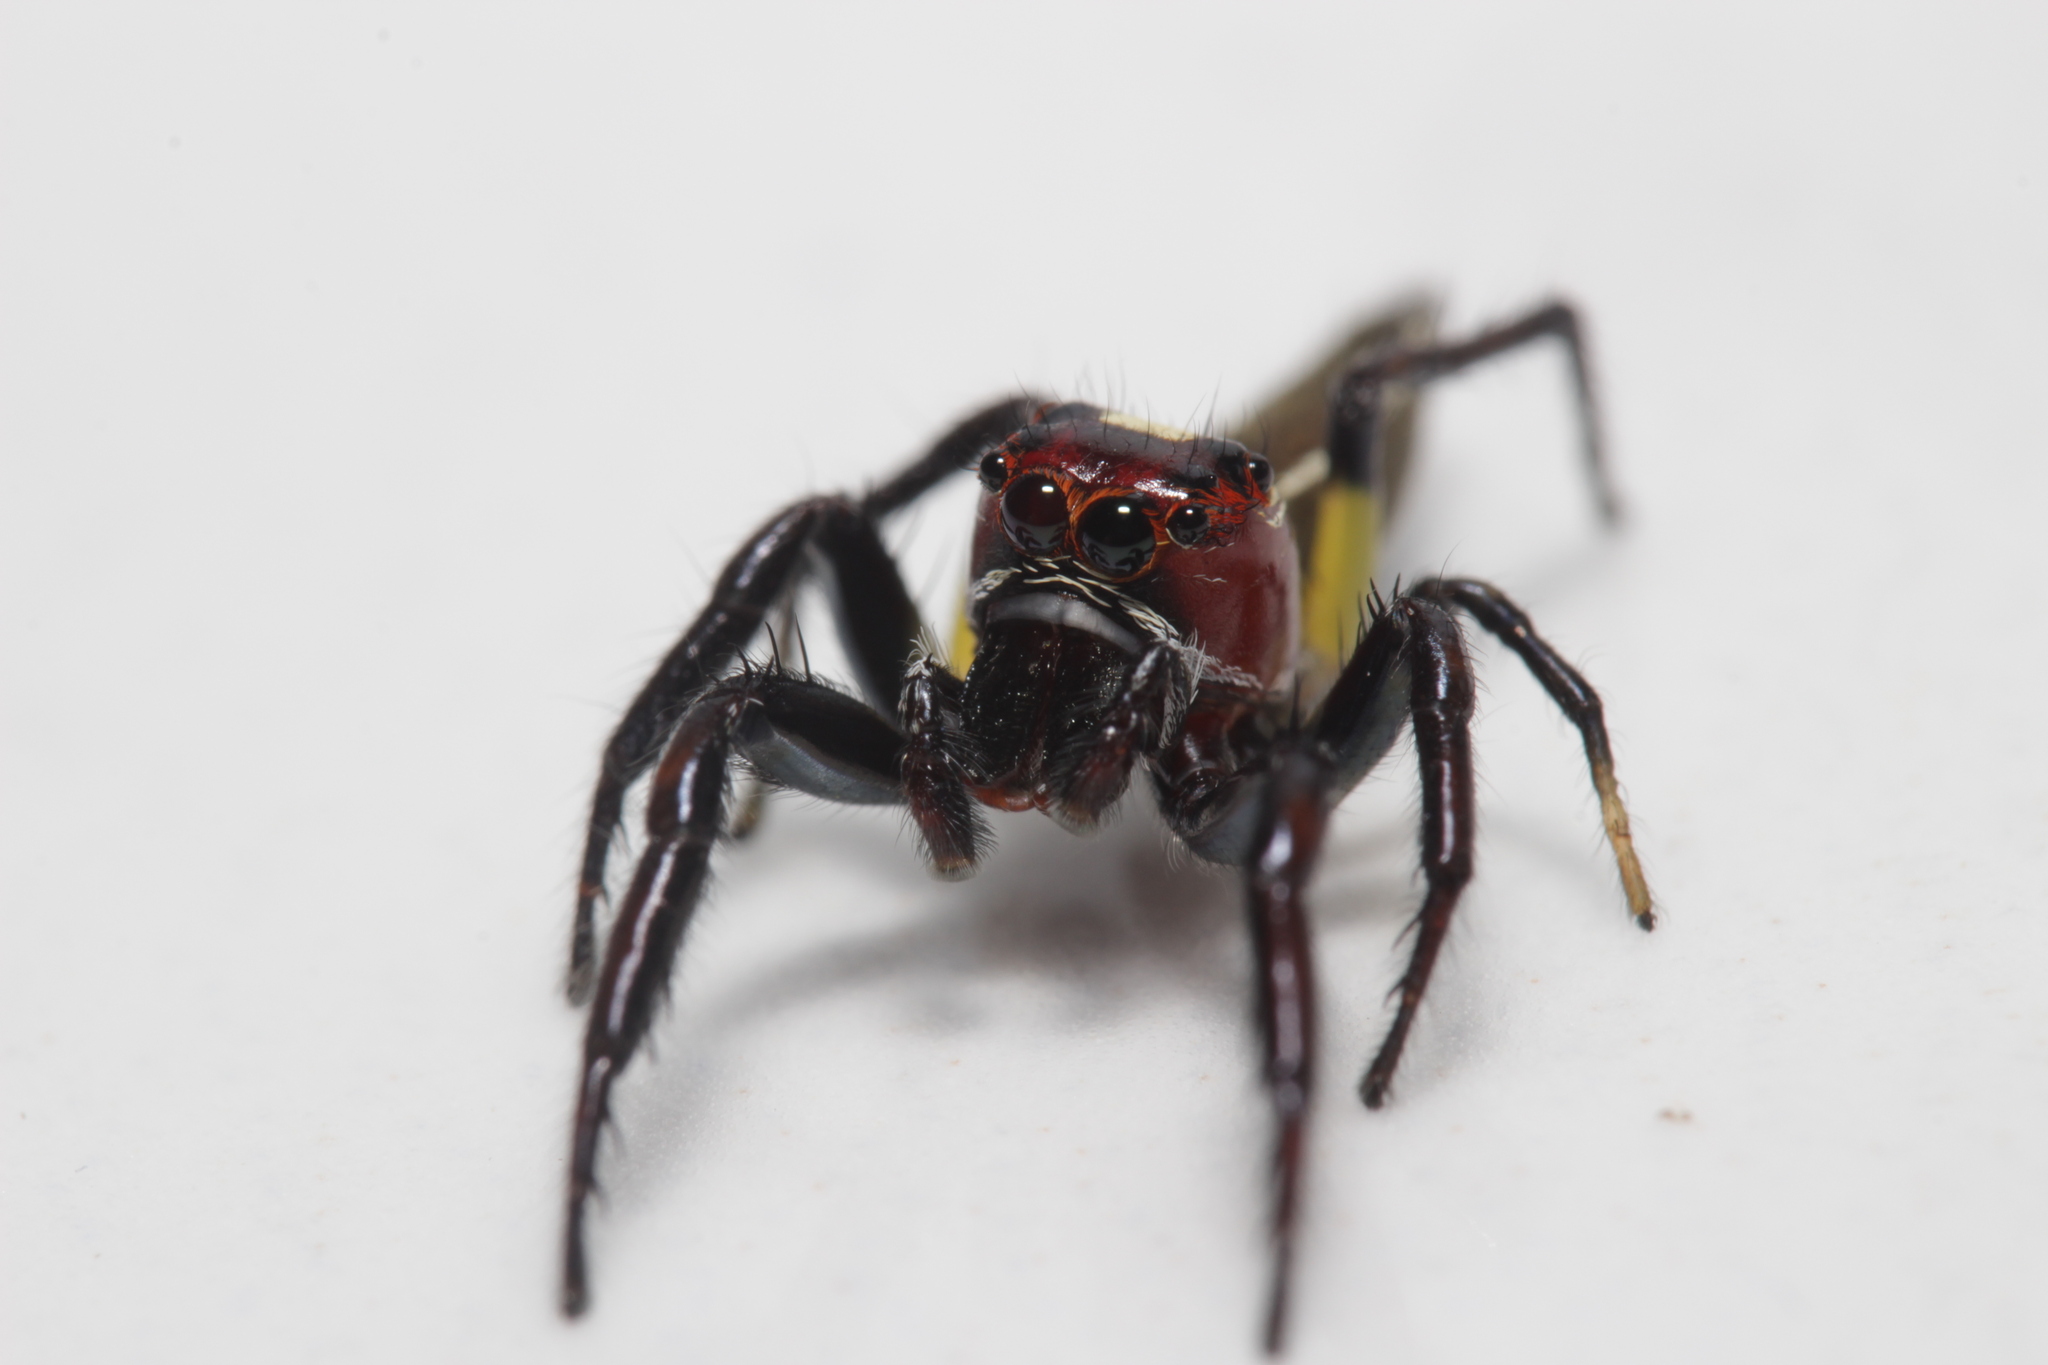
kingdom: Animalia
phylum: Arthropoda
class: Arachnida
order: Araneae
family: Salticidae
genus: Colonus
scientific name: Colonus sylvanus
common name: Jumping spiders
